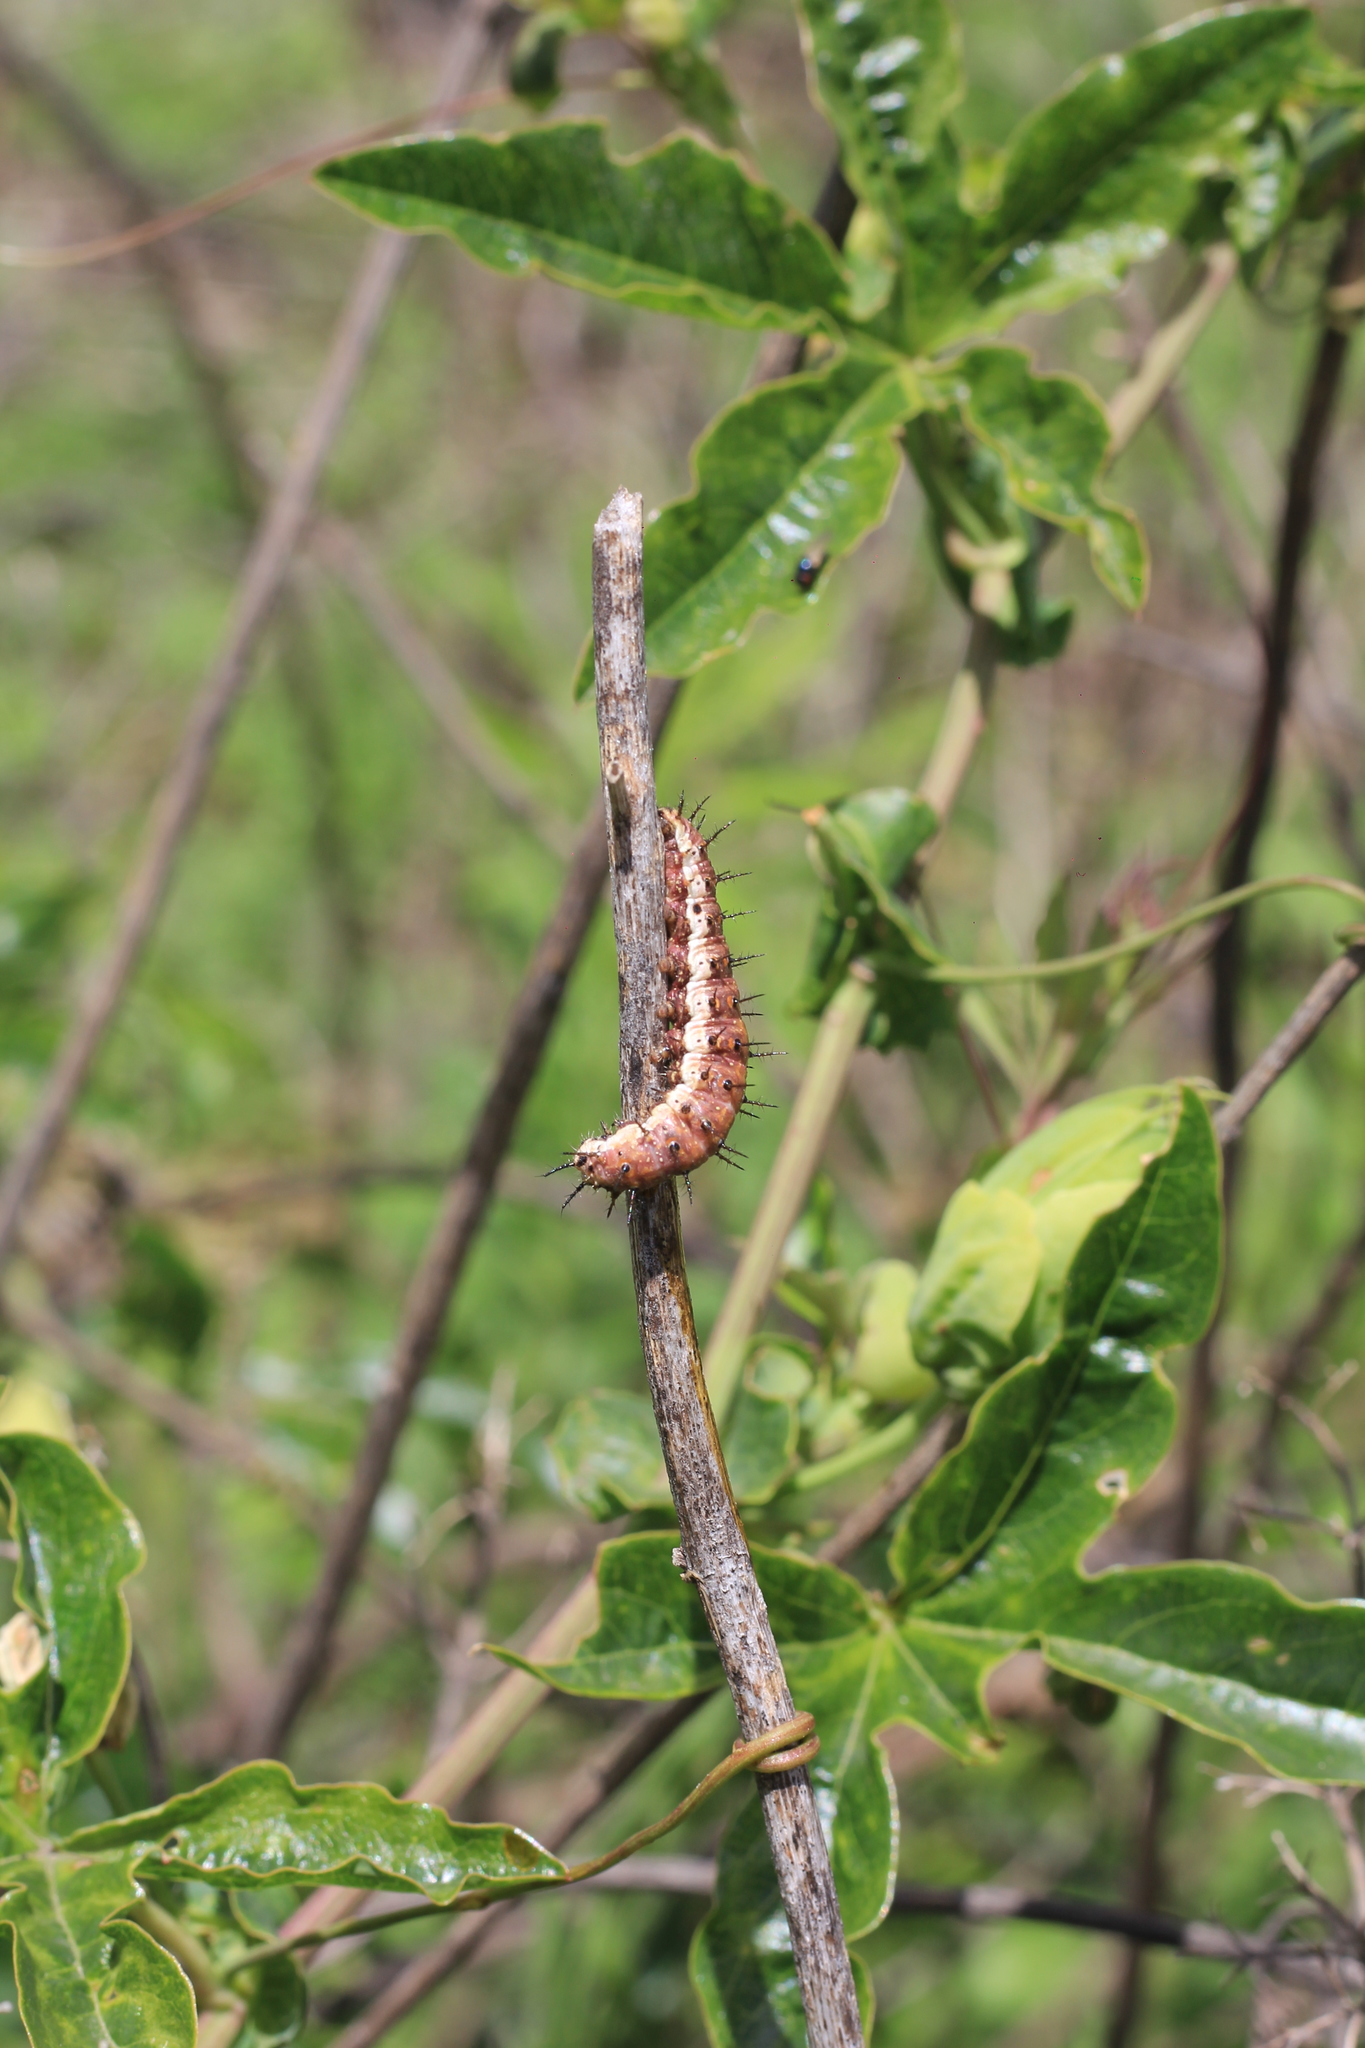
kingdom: Animalia
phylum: Arthropoda
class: Insecta
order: Lepidoptera
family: Nymphalidae
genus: Dione
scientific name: Dione vanillae
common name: Gulf fritillary
